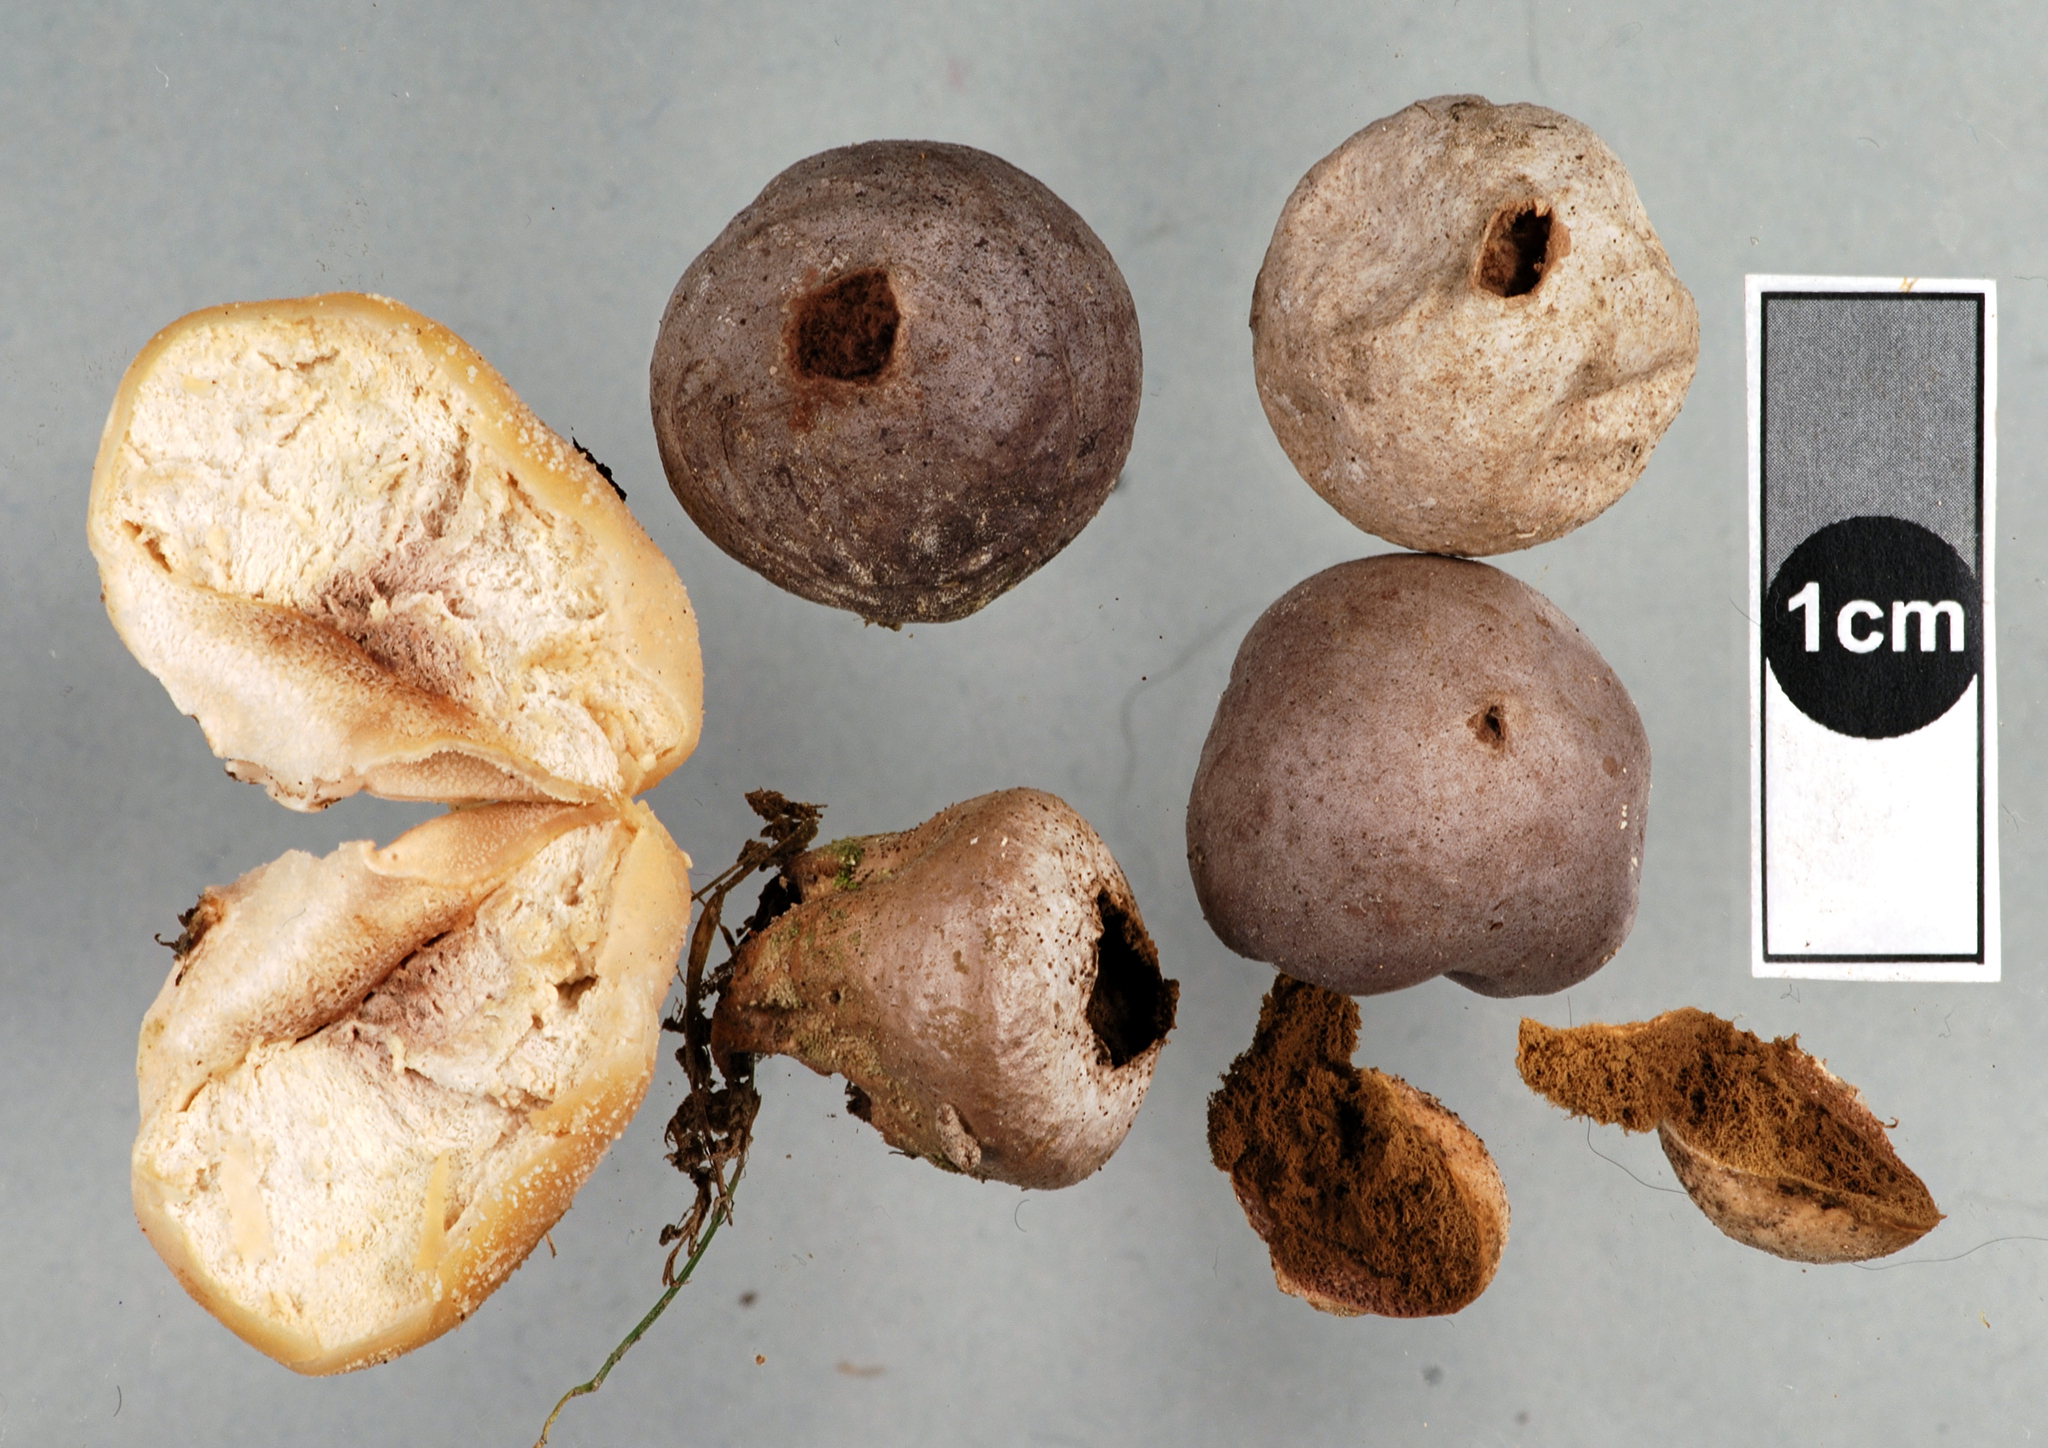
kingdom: Fungi
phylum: Basidiomycota
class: Agaricomycetes
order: Agaricales
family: Lycoperdaceae
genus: Bovista
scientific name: Bovista plumbea
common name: Grey puffball
